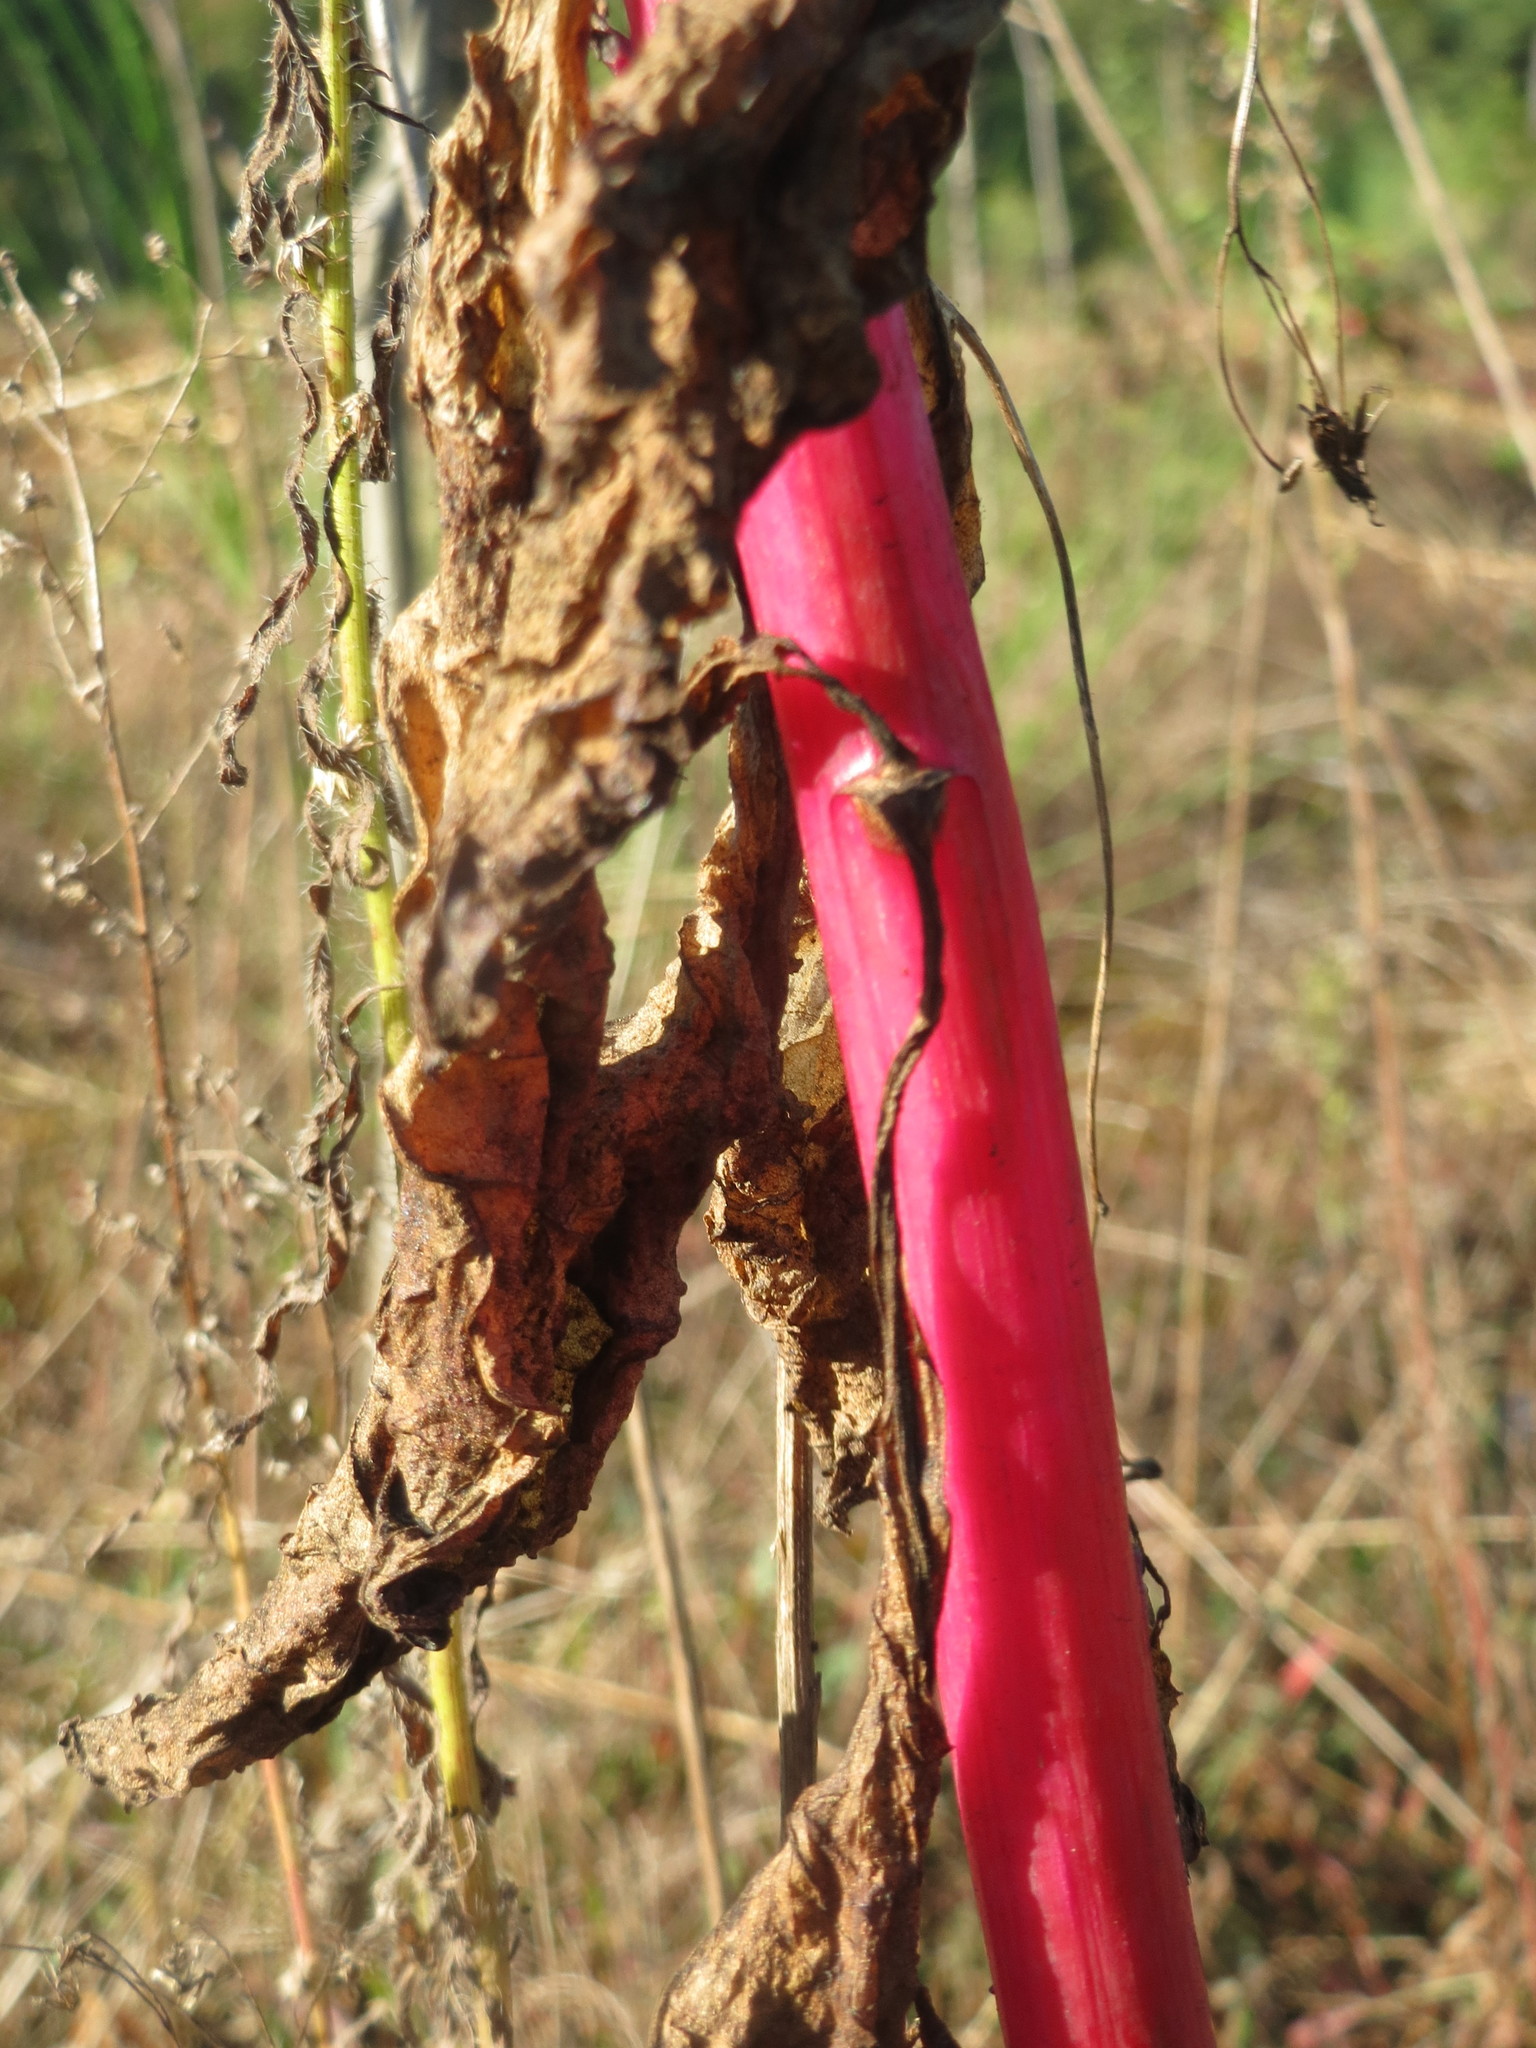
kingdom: Plantae
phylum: Tracheophyta
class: Magnoliopsida
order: Caryophyllales
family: Phytolaccaceae
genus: Phytolacca
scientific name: Phytolacca americana
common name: American pokeweed
